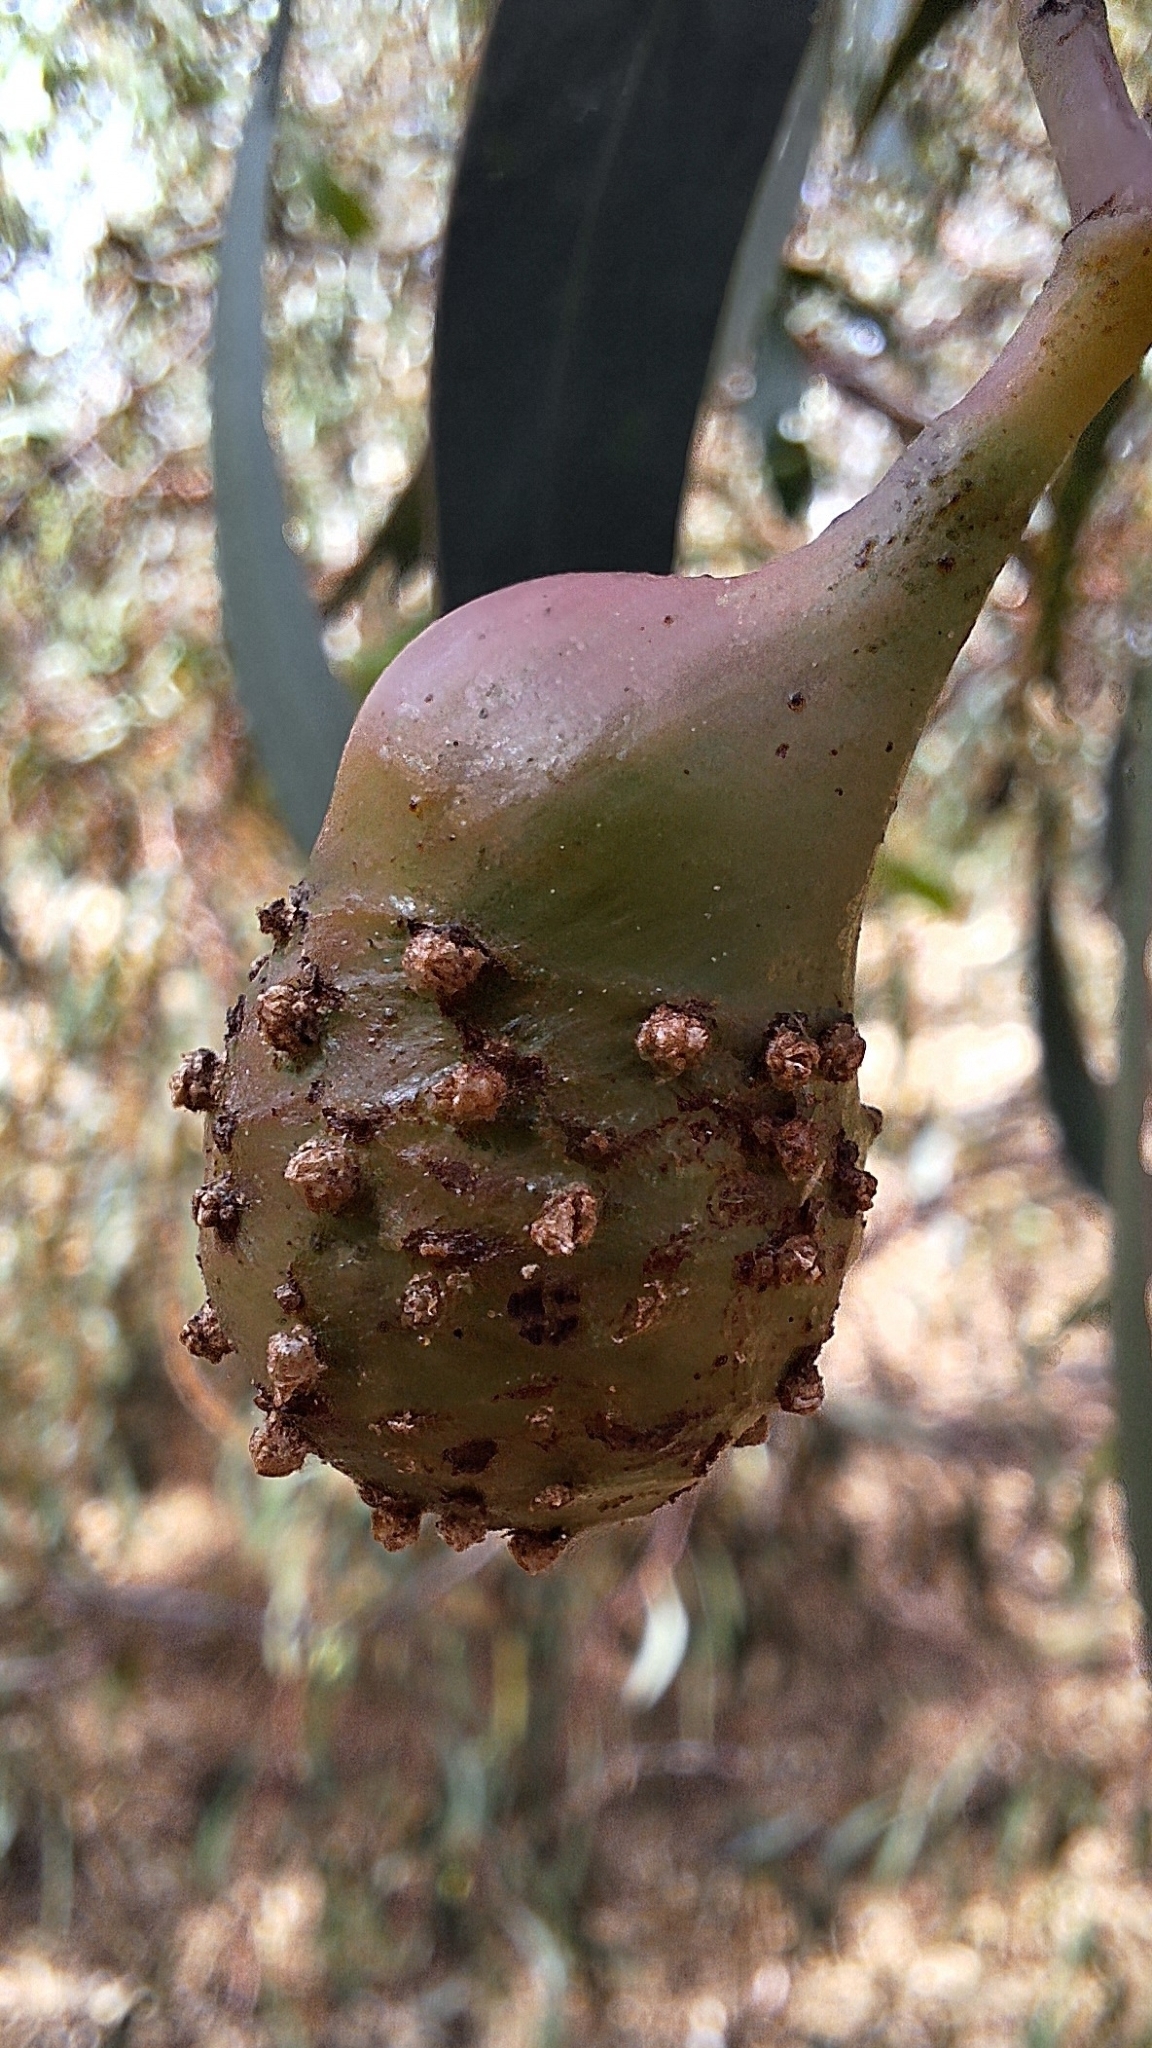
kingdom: Animalia
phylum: Arthropoda
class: Insecta
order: Hymenoptera
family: Pteromalidae
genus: Trichilogaster
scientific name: Trichilogaster signiventris
